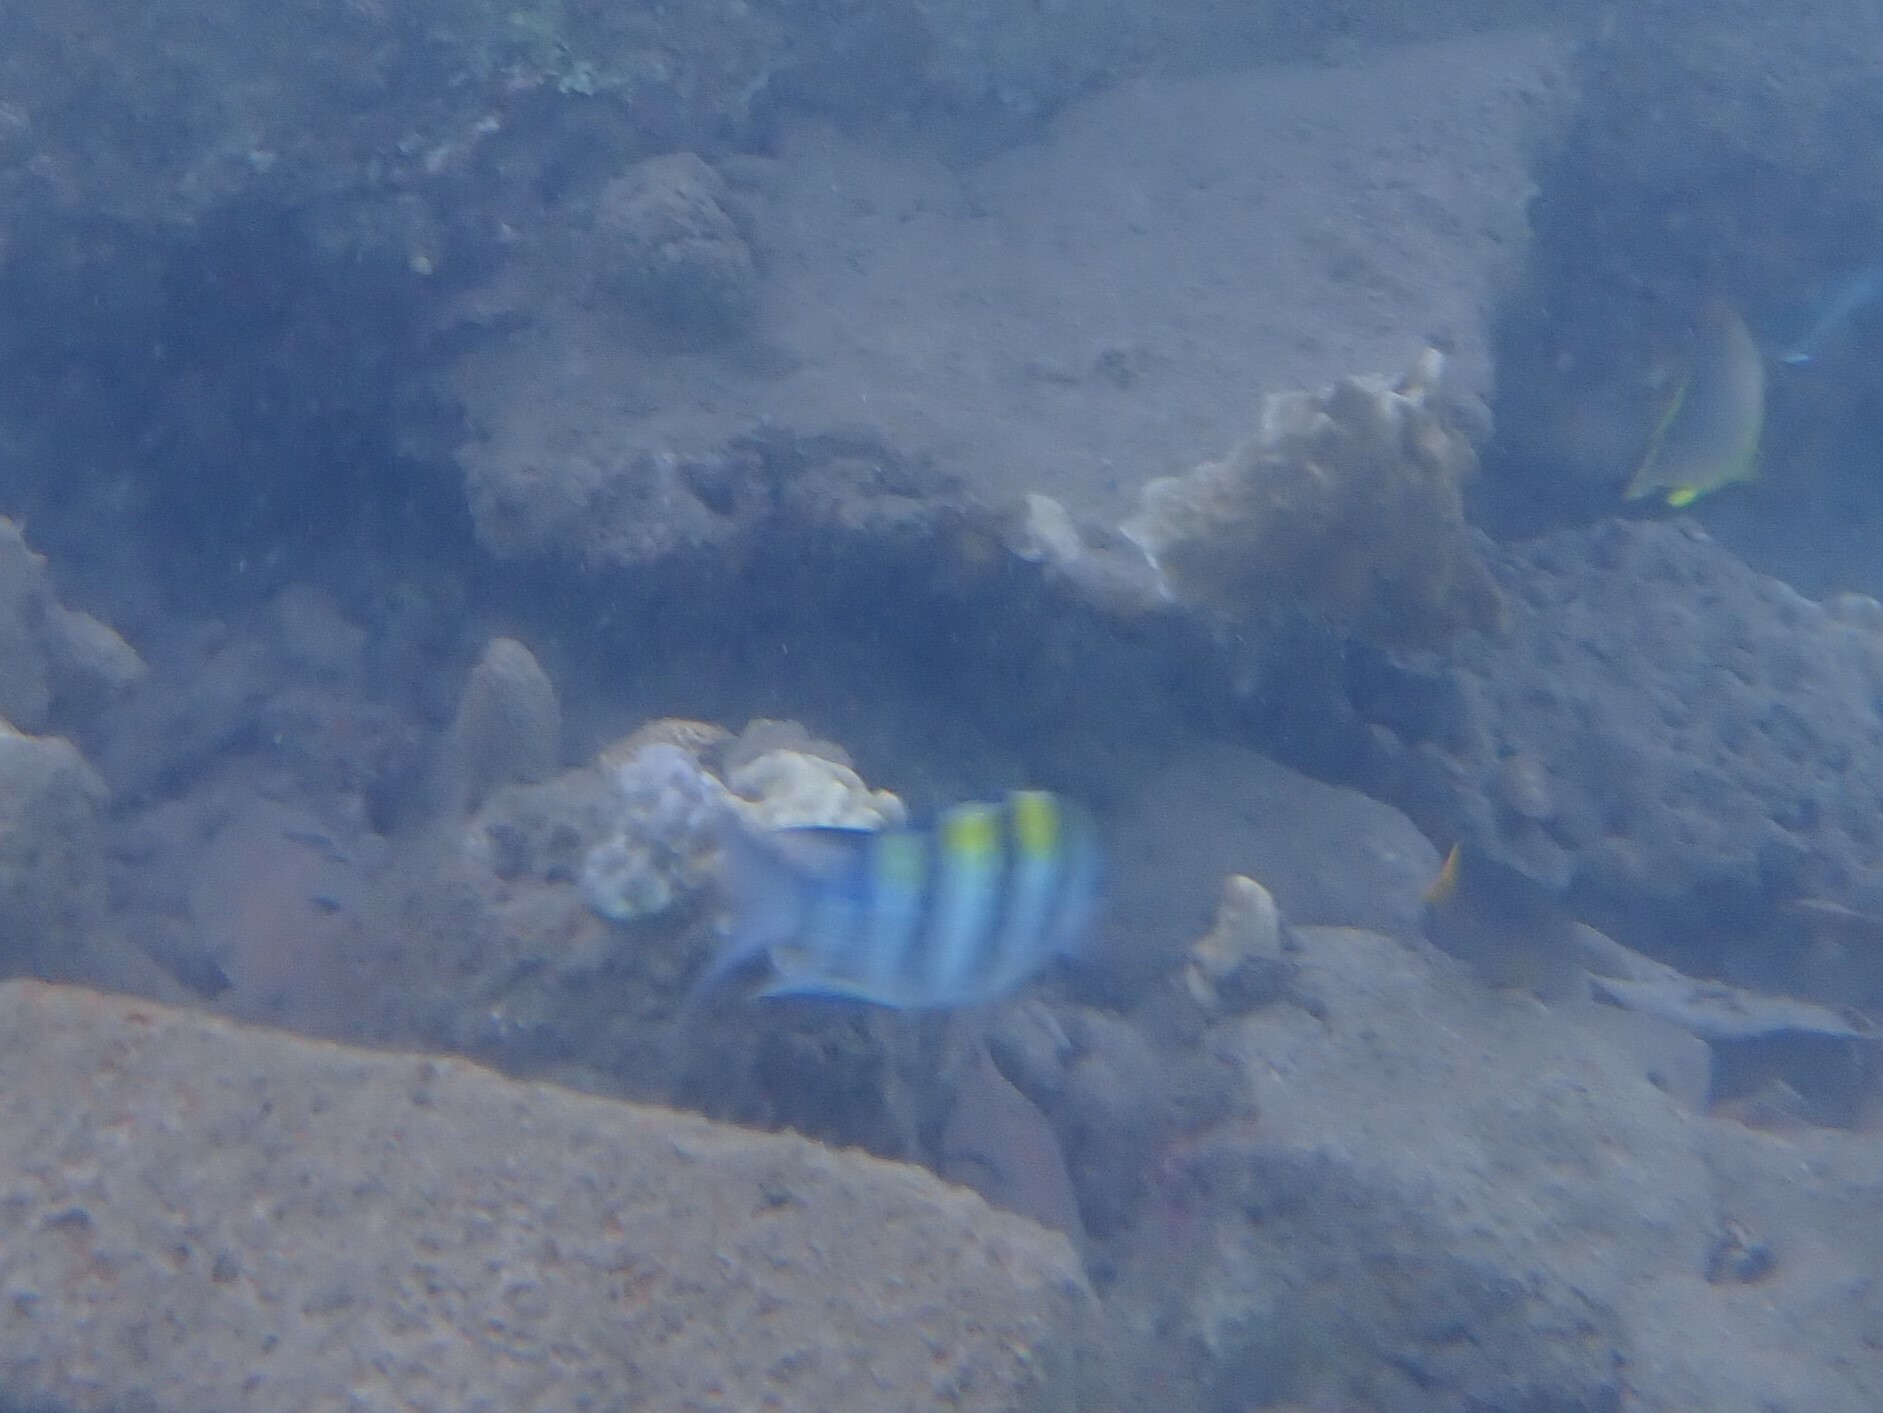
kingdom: Animalia
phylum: Chordata
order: Perciformes
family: Pomacentridae
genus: Abudefduf
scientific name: Abudefduf vaigiensis
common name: Indo-pacific sergeant
